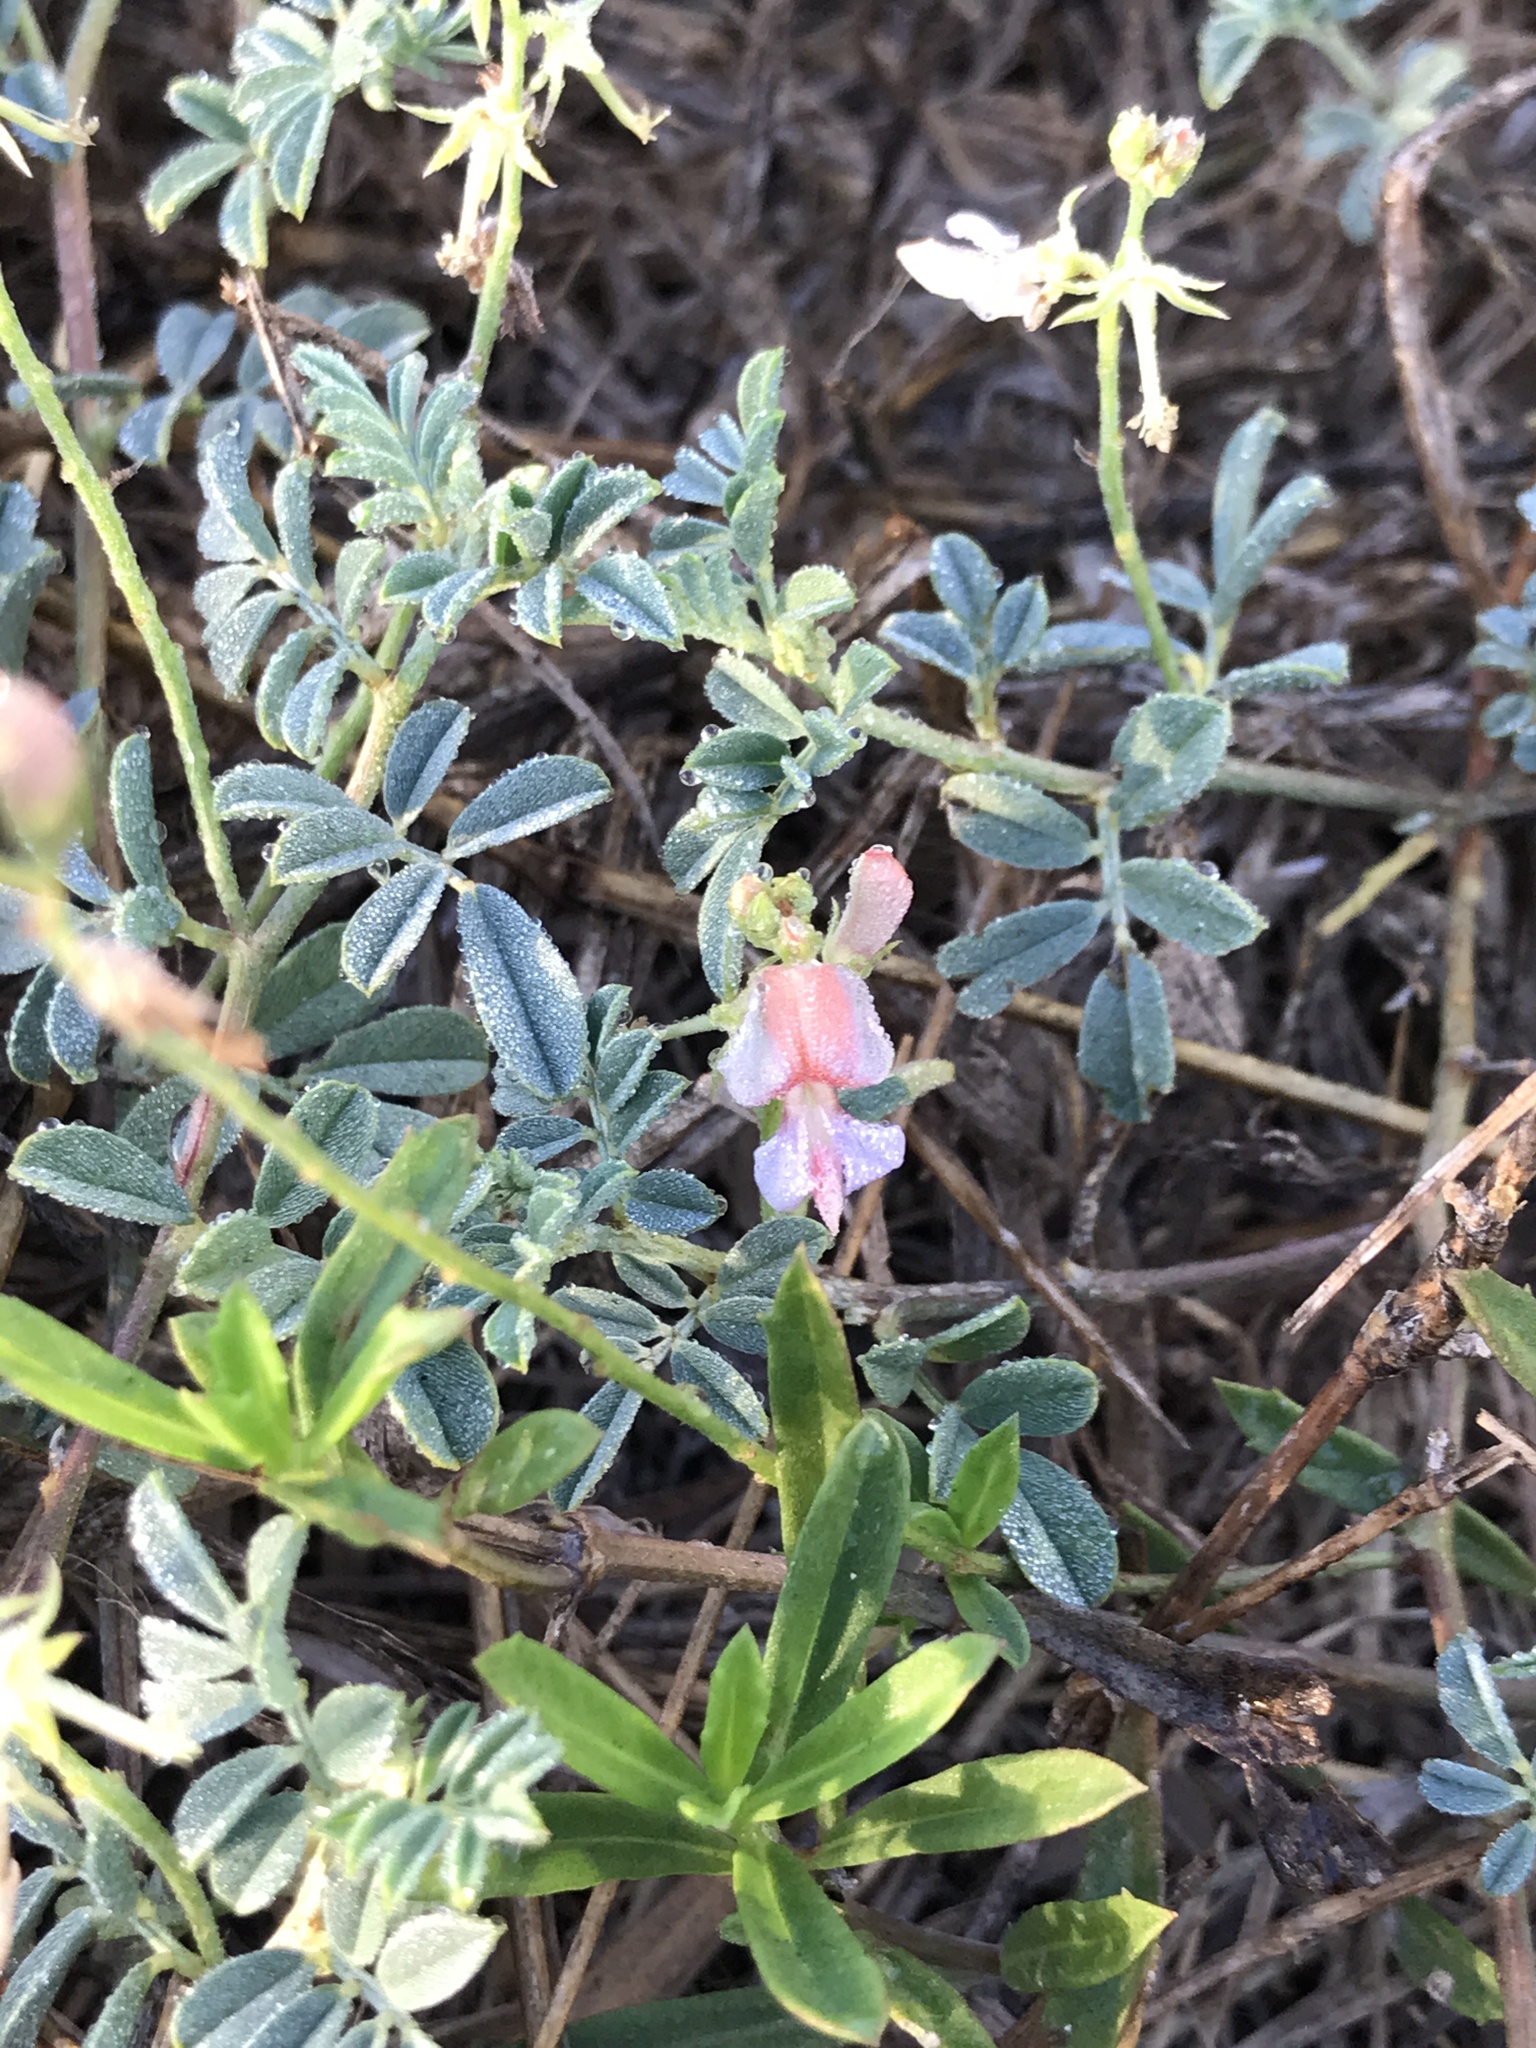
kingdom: Plantae
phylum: Tracheophyta
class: Magnoliopsida
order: Fabales
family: Fabaceae
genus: Indigofera
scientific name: Indigofera miniata
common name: Coast indigo
